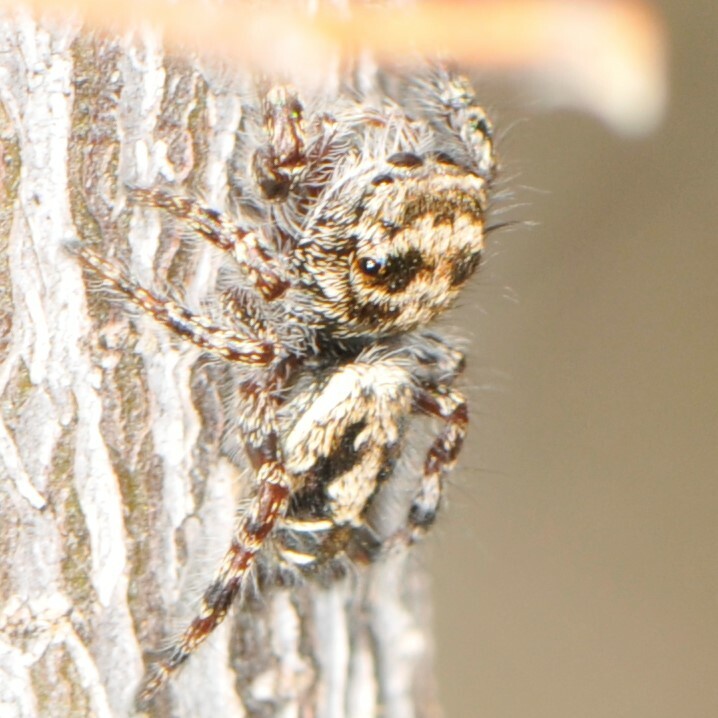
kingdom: Animalia
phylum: Arthropoda
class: Arachnida
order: Araneae
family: Salticidae
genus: Phidippus
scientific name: Phidippus comatus
